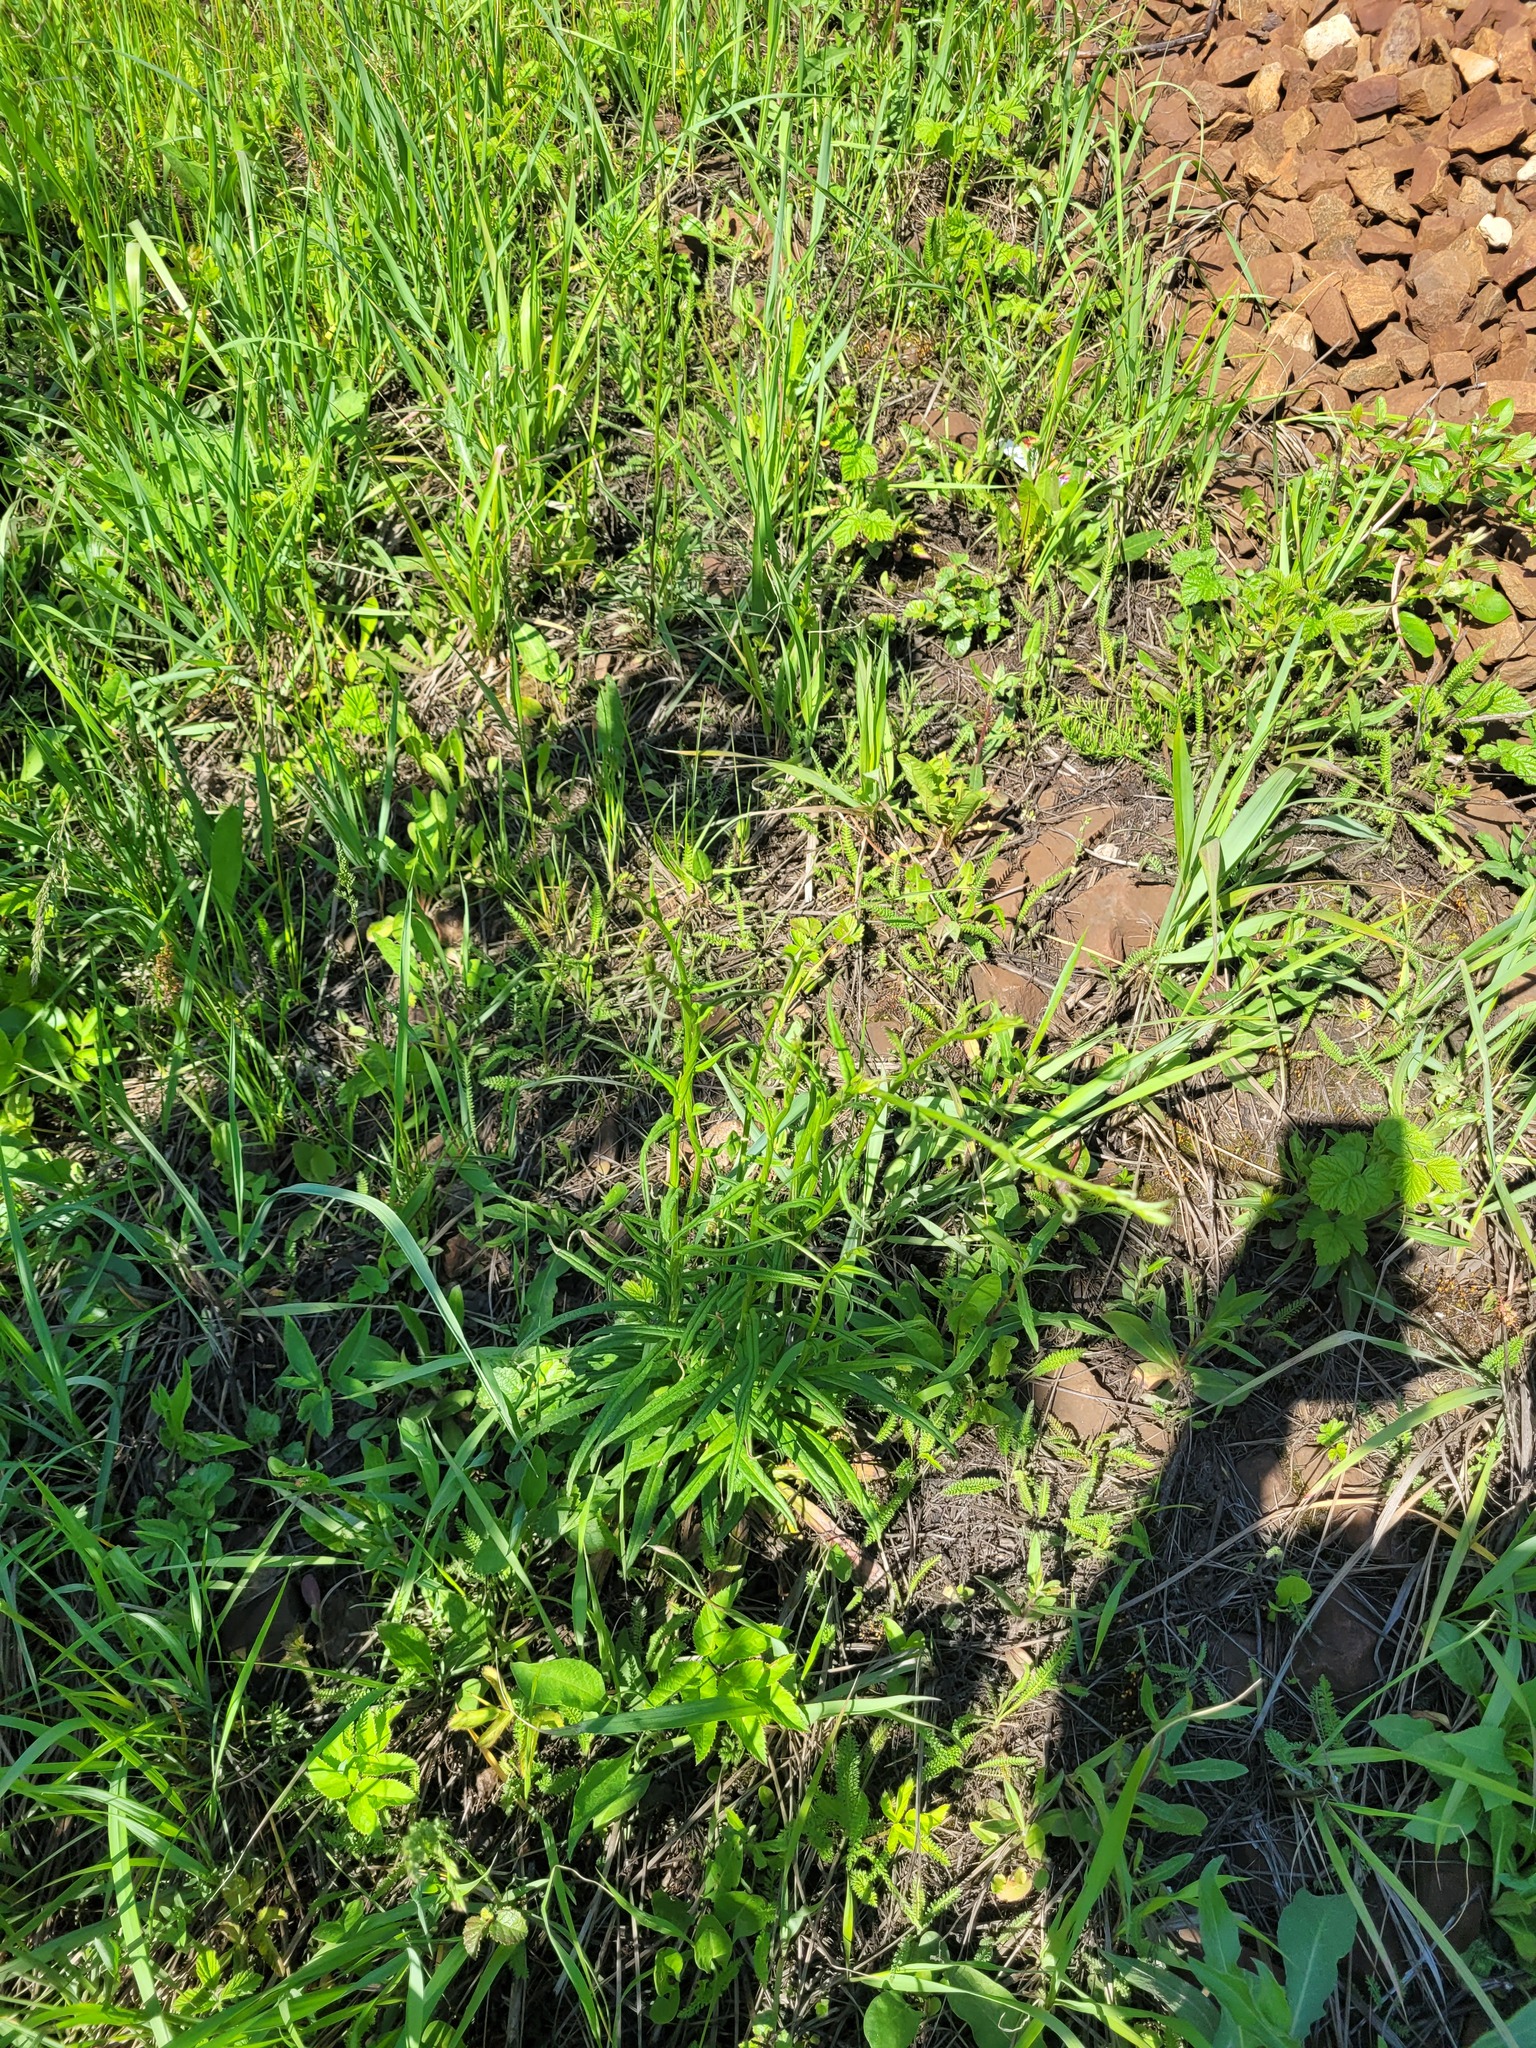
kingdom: Plantae
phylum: Tracheophyta
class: Magnoliopsida
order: Asterales
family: Campanulaceae
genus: Campanula
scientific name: Campanula persicifolia
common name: Peach-leaved bellflower
